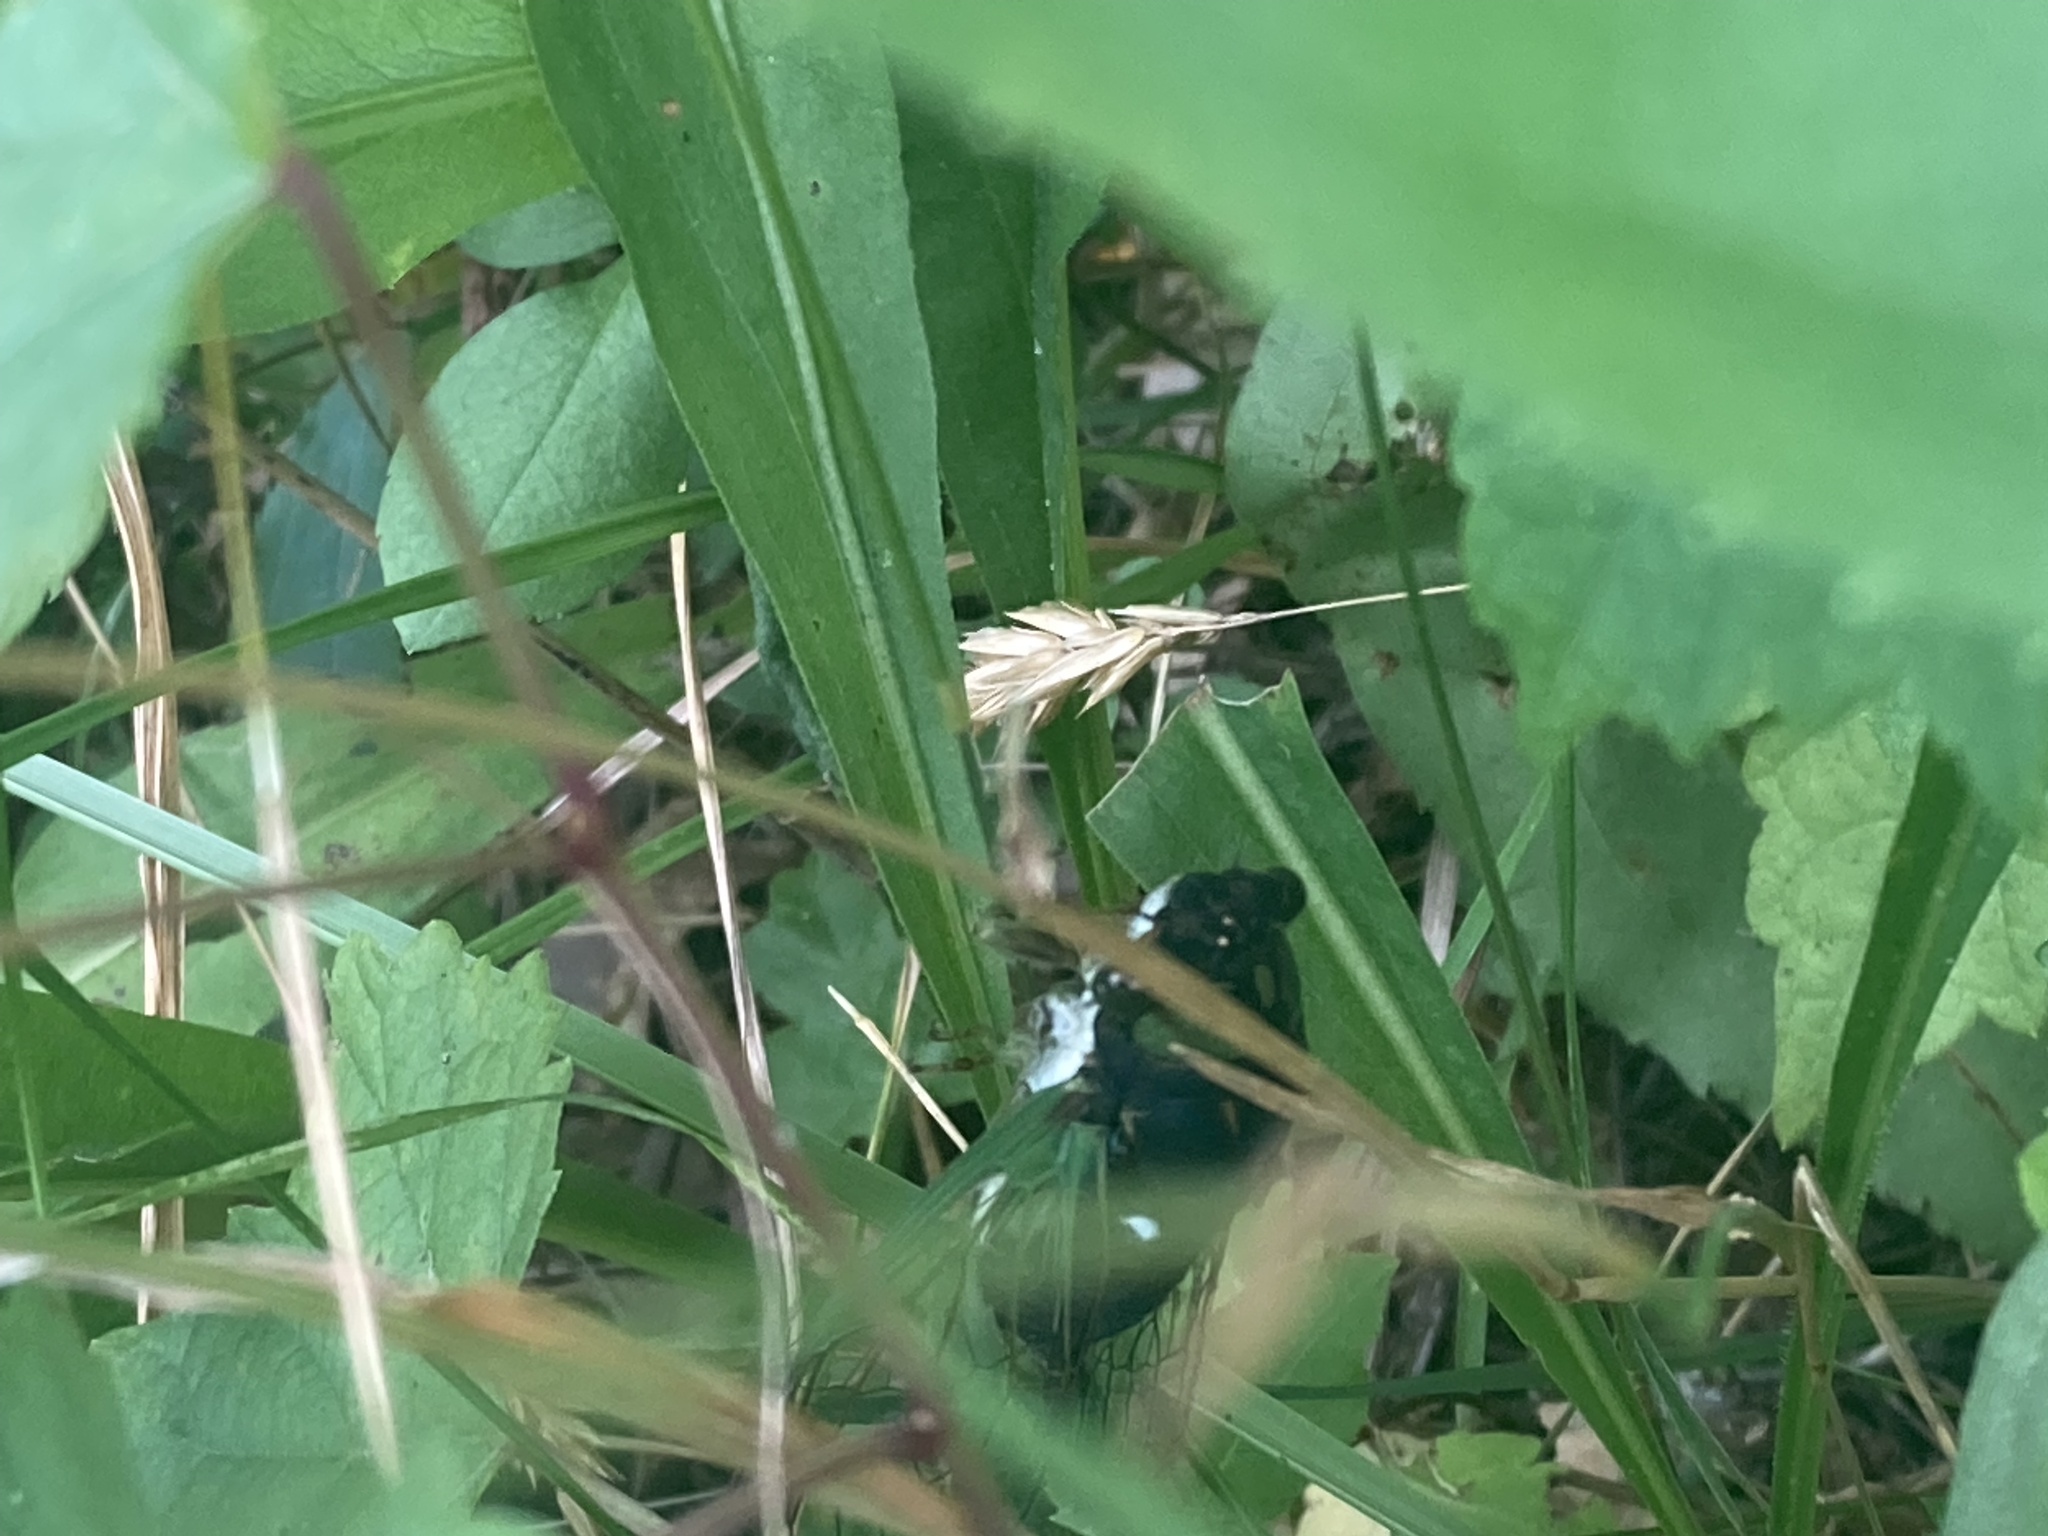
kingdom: Animalia
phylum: Arthropoda
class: Insecta
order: Hemiptera
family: Cicadidae
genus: Neotibicen
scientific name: Neotibicen tibicen
